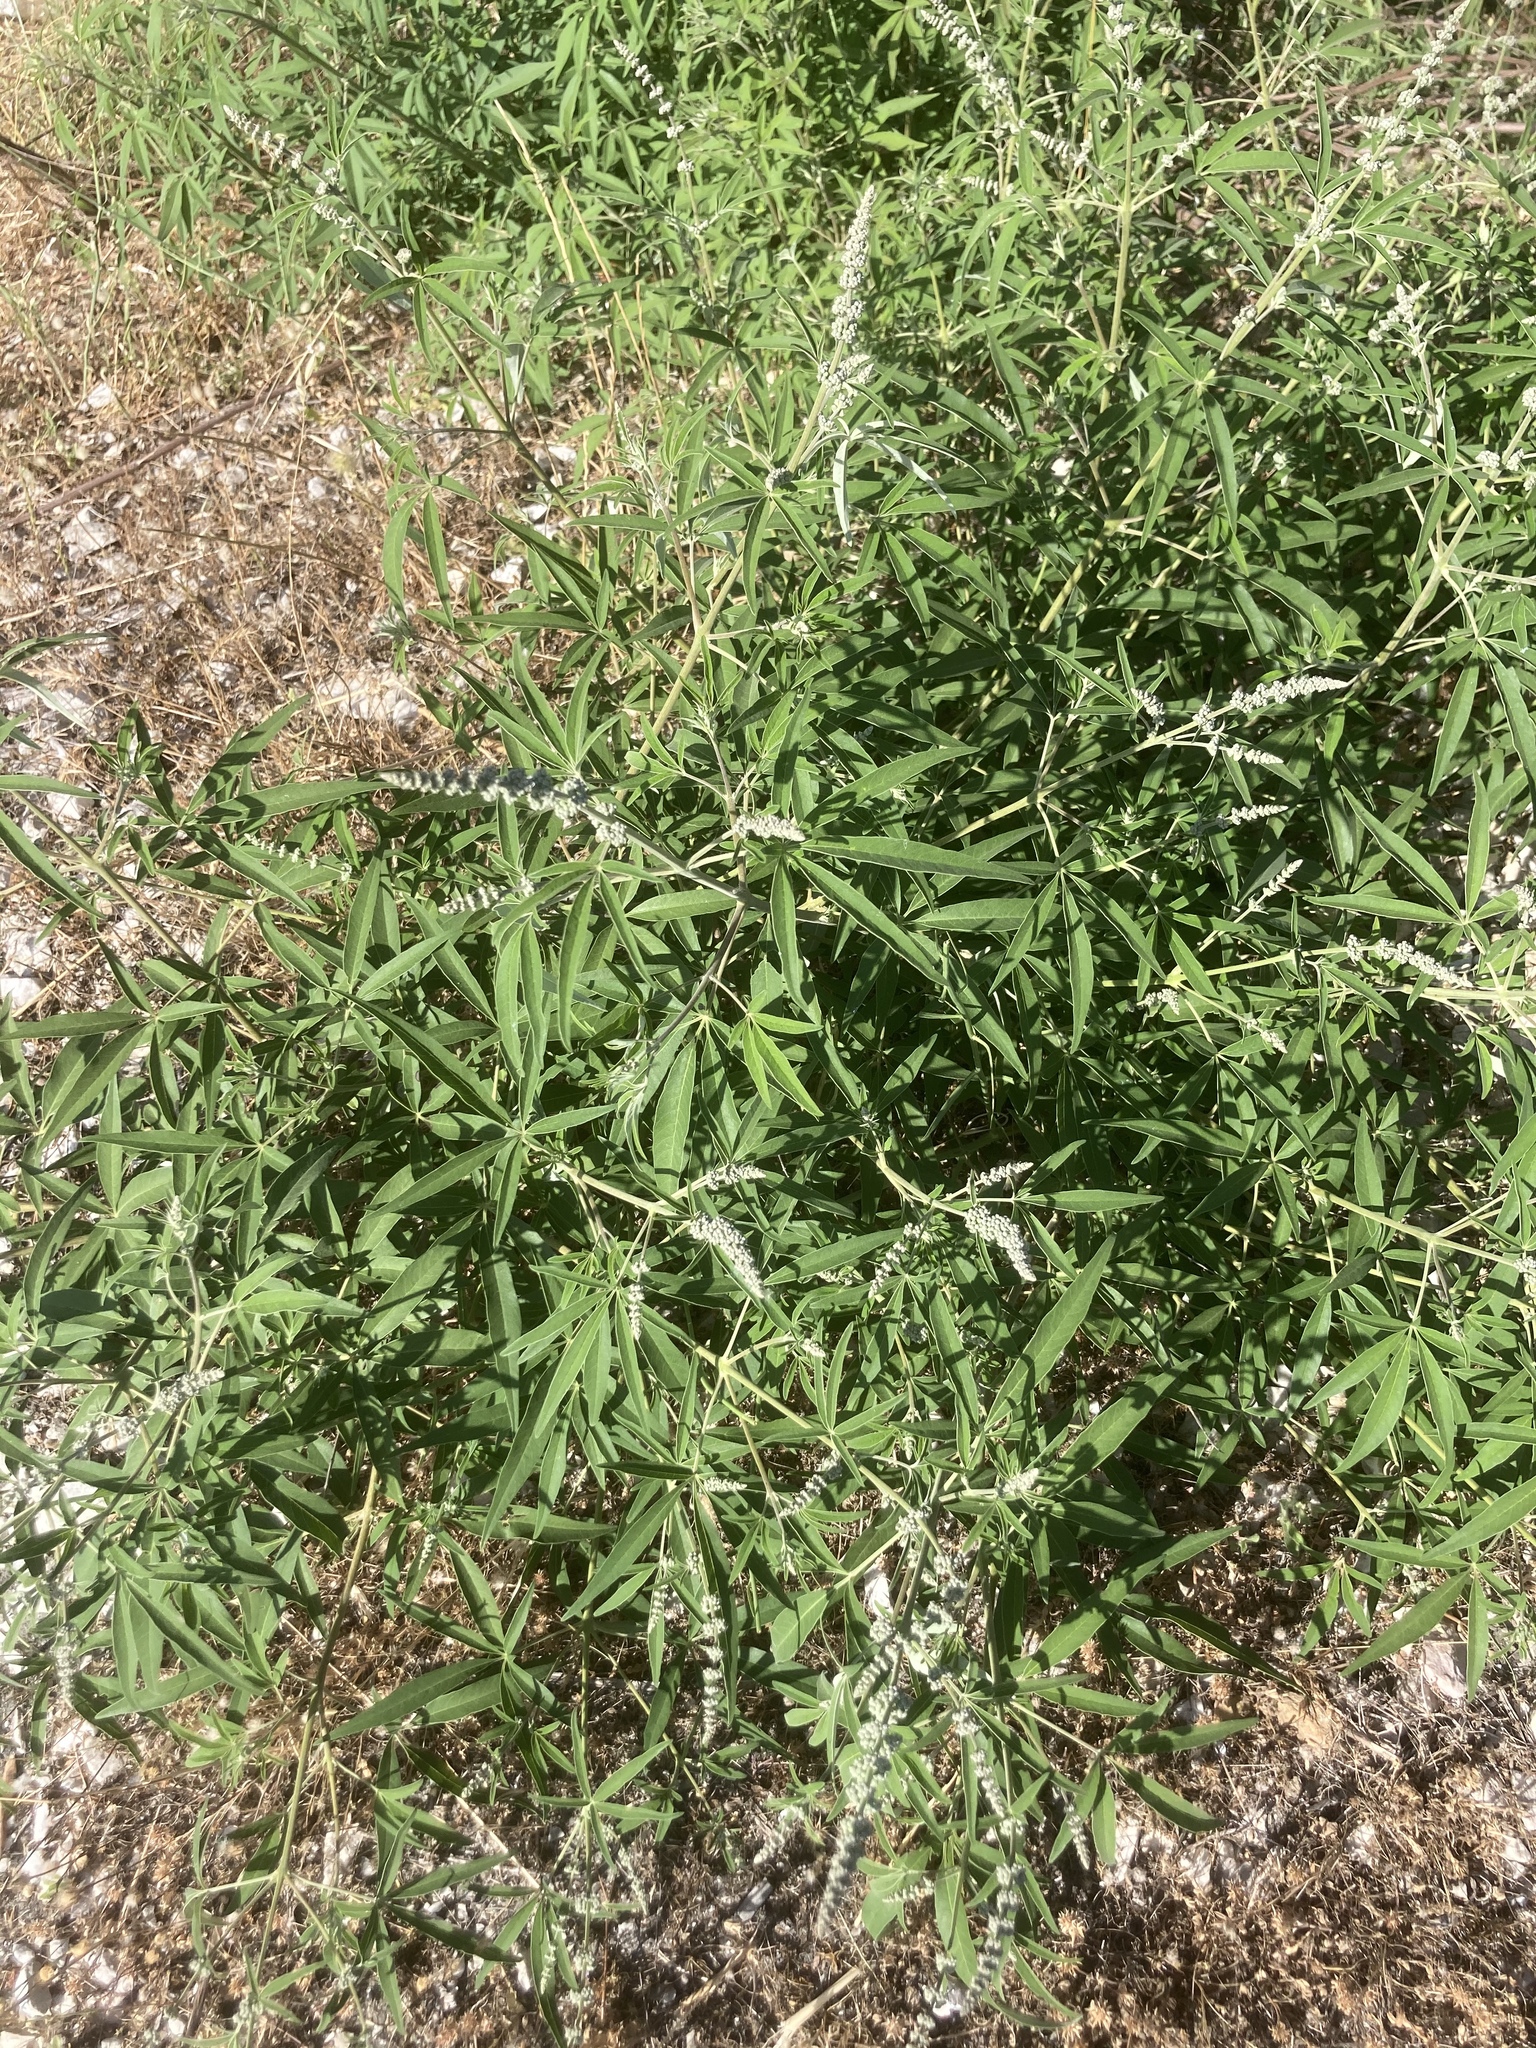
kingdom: Plantae
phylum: Tracheophyta
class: Magnoliopsida
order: Lamiales
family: Lamiaceae
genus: Vitex
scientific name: Vitex agnus-castus
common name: Chasteberry
